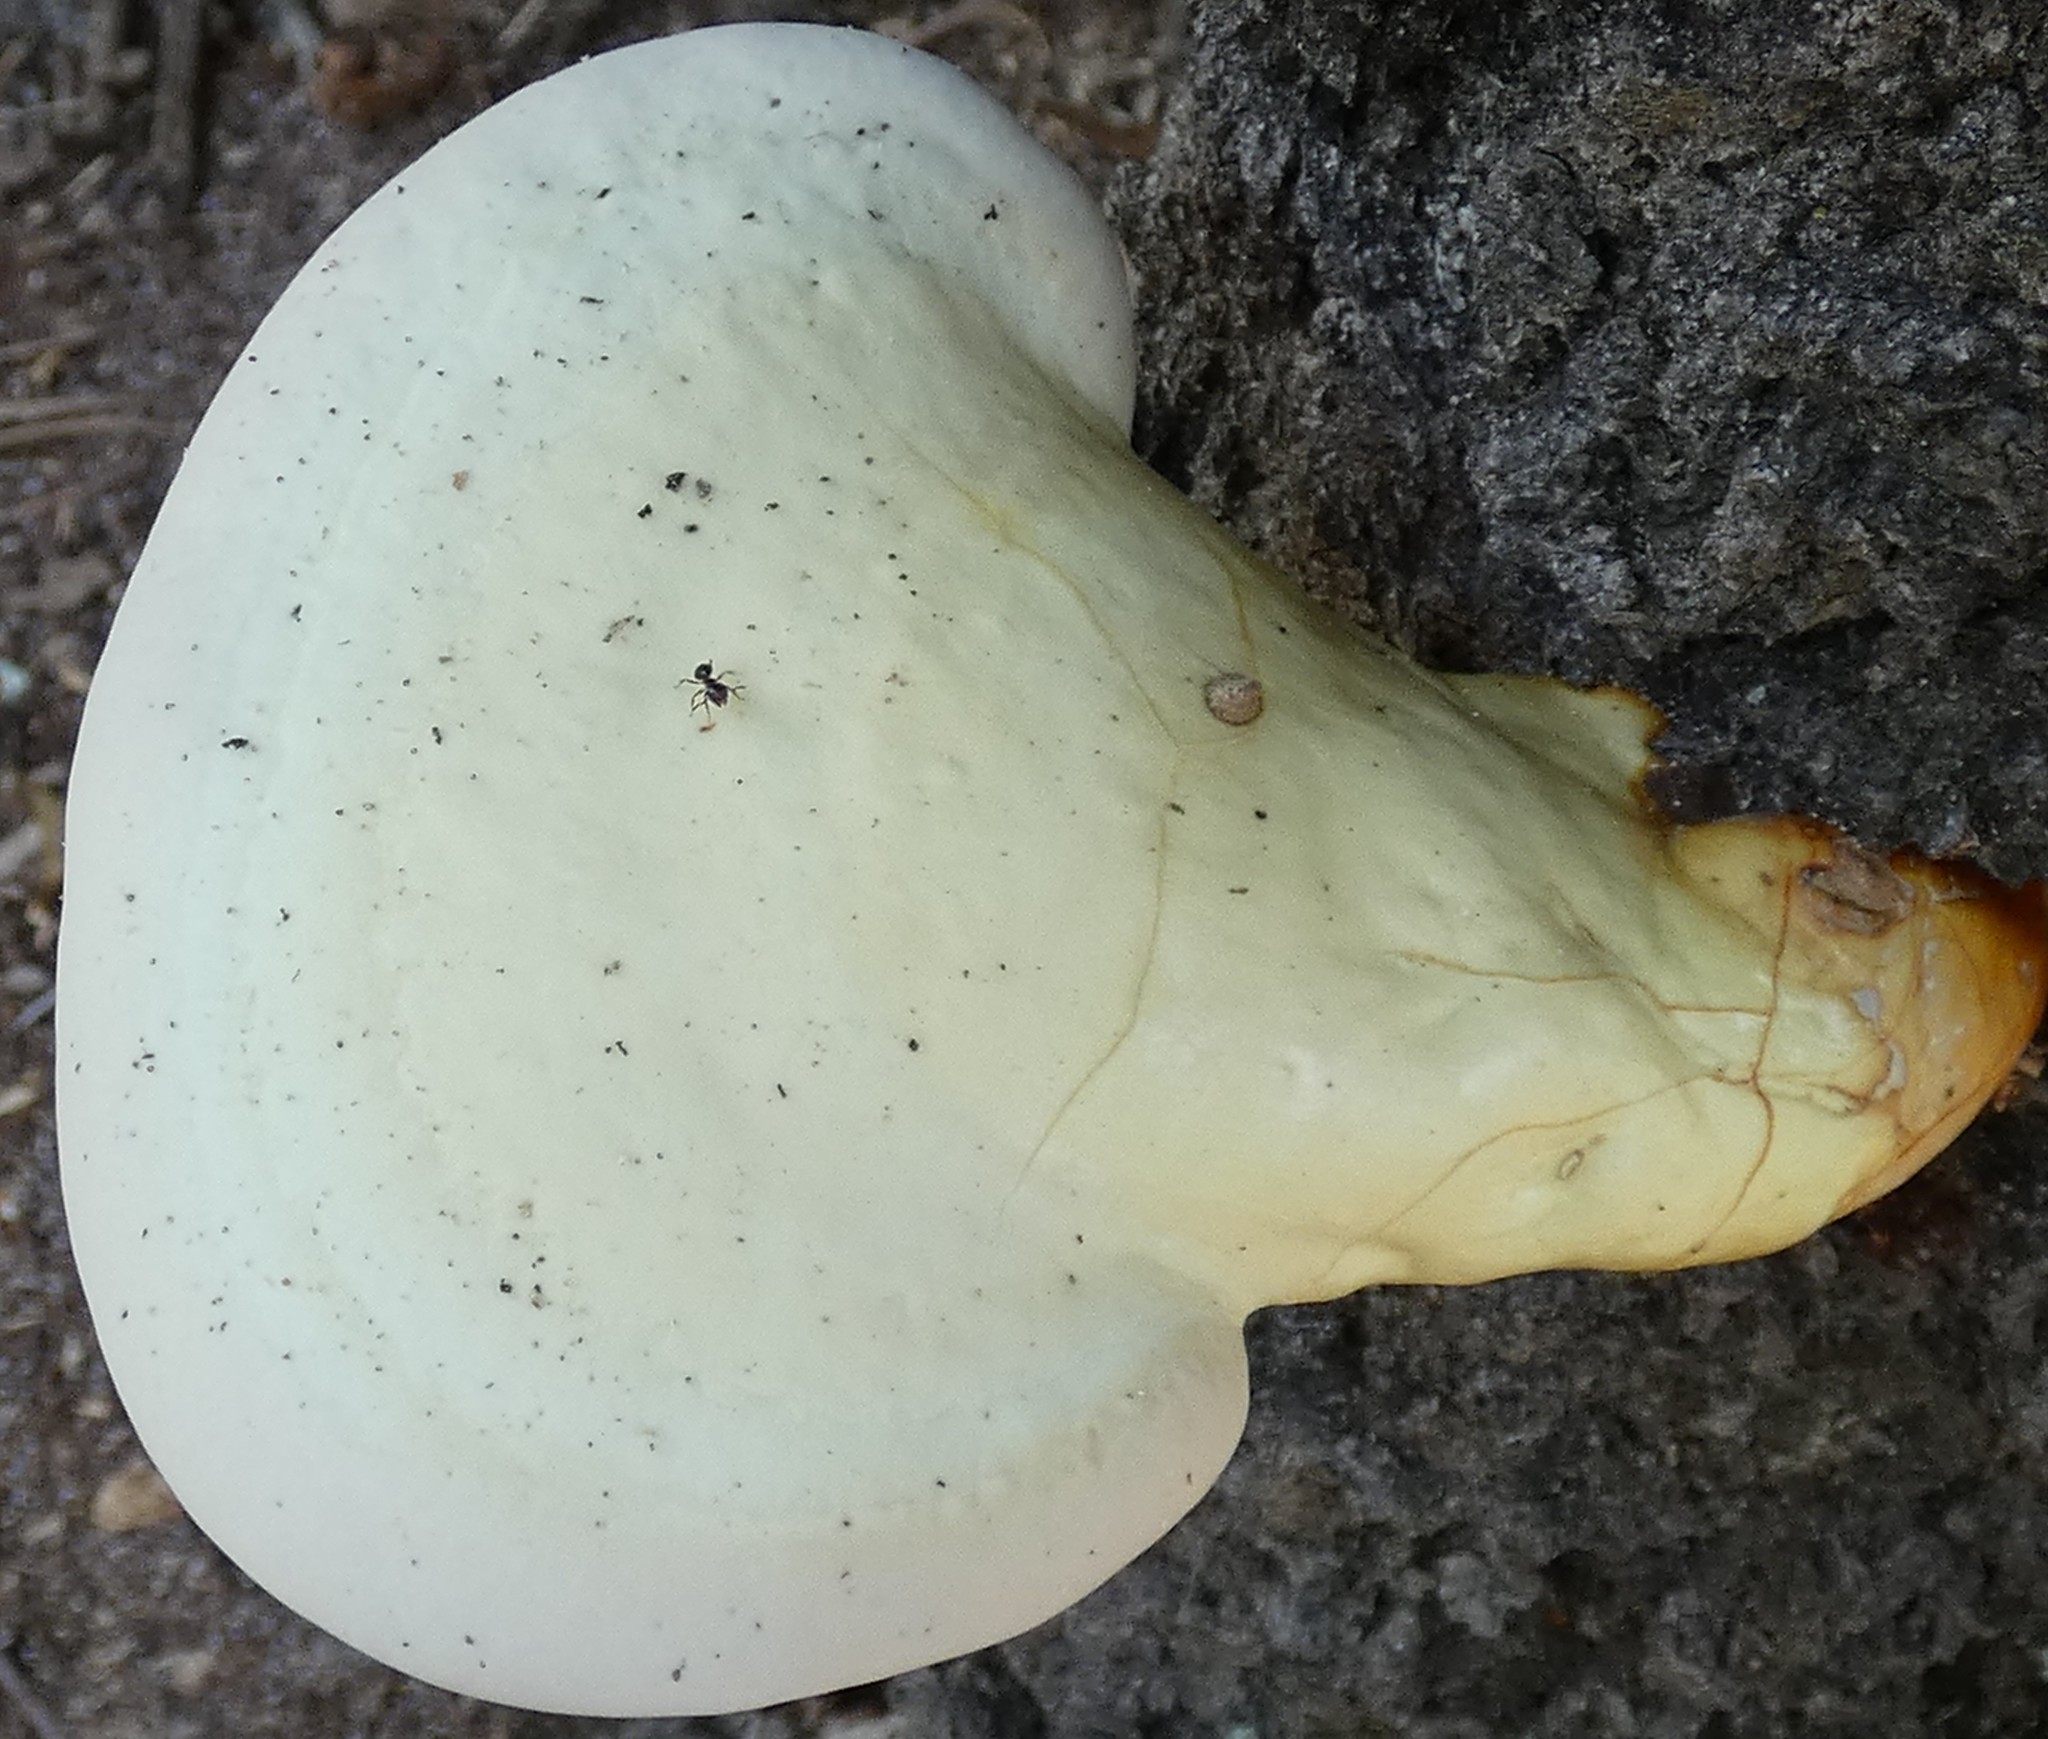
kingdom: Fungi
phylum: Basidiomycota
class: Agaricomycetes
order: Polyporales
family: Polyporaceae
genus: Ganoderma
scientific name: Ganoderma curtisii
